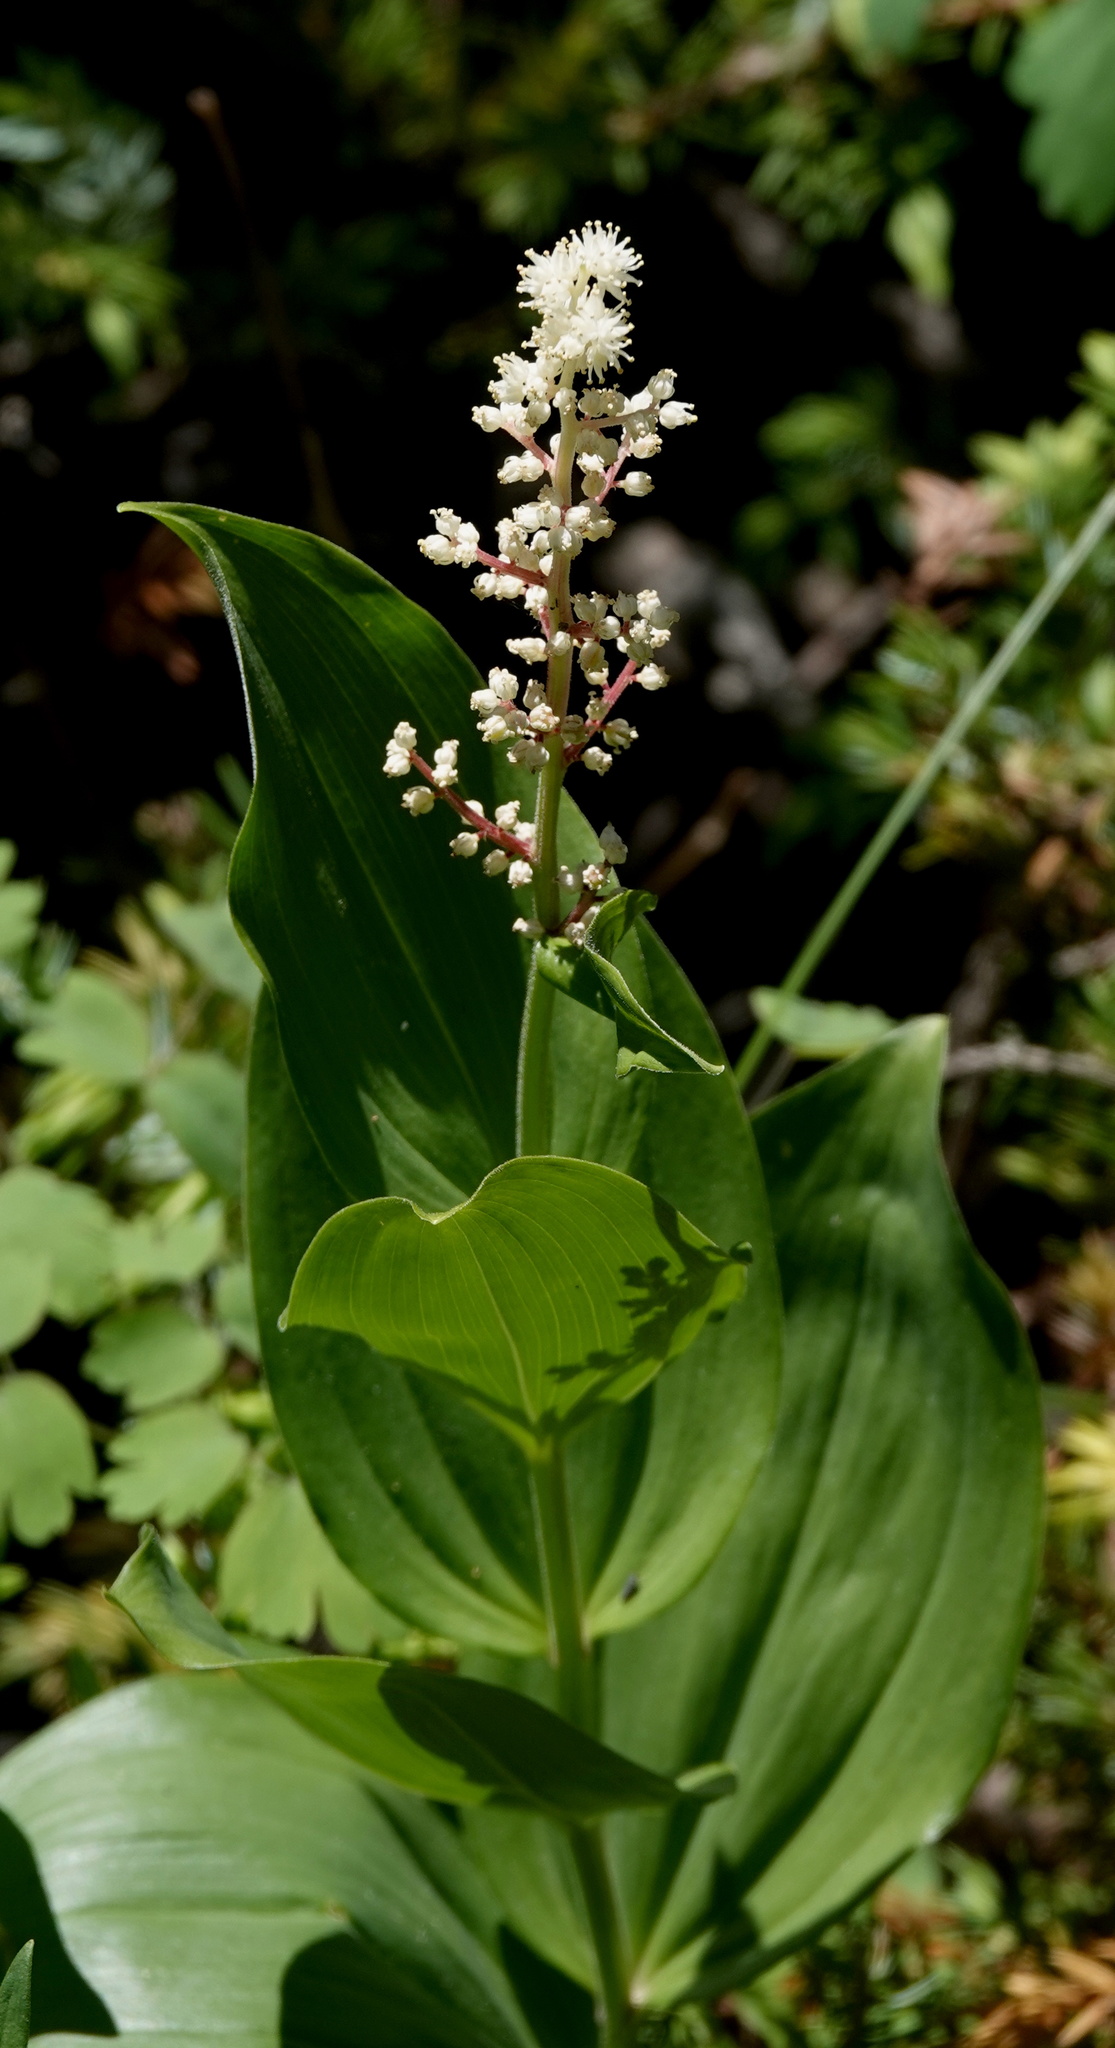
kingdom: Plantae
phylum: Tracheophyta
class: Liliopsida
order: Asparagales
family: Asparagaceae
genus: Maianthemum
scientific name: Maianthemum racemosum
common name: False spikenard
